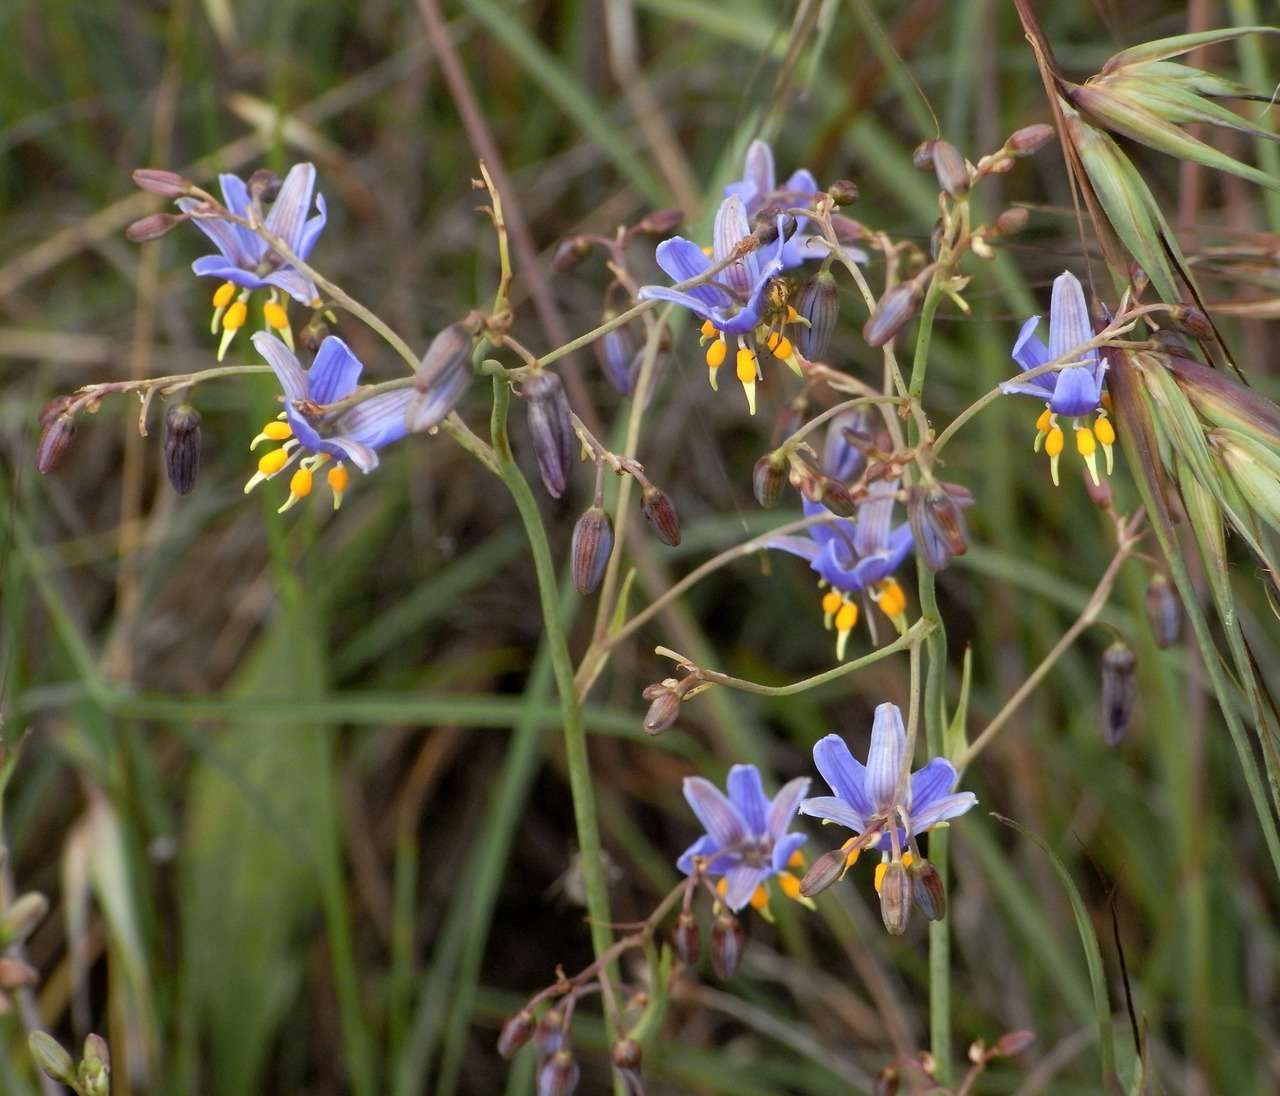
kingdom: Plantae
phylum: Tracheophyta
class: Liliopsida
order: Asparagales
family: Asphodelaceae
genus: Dianella
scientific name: Dianella amoena
